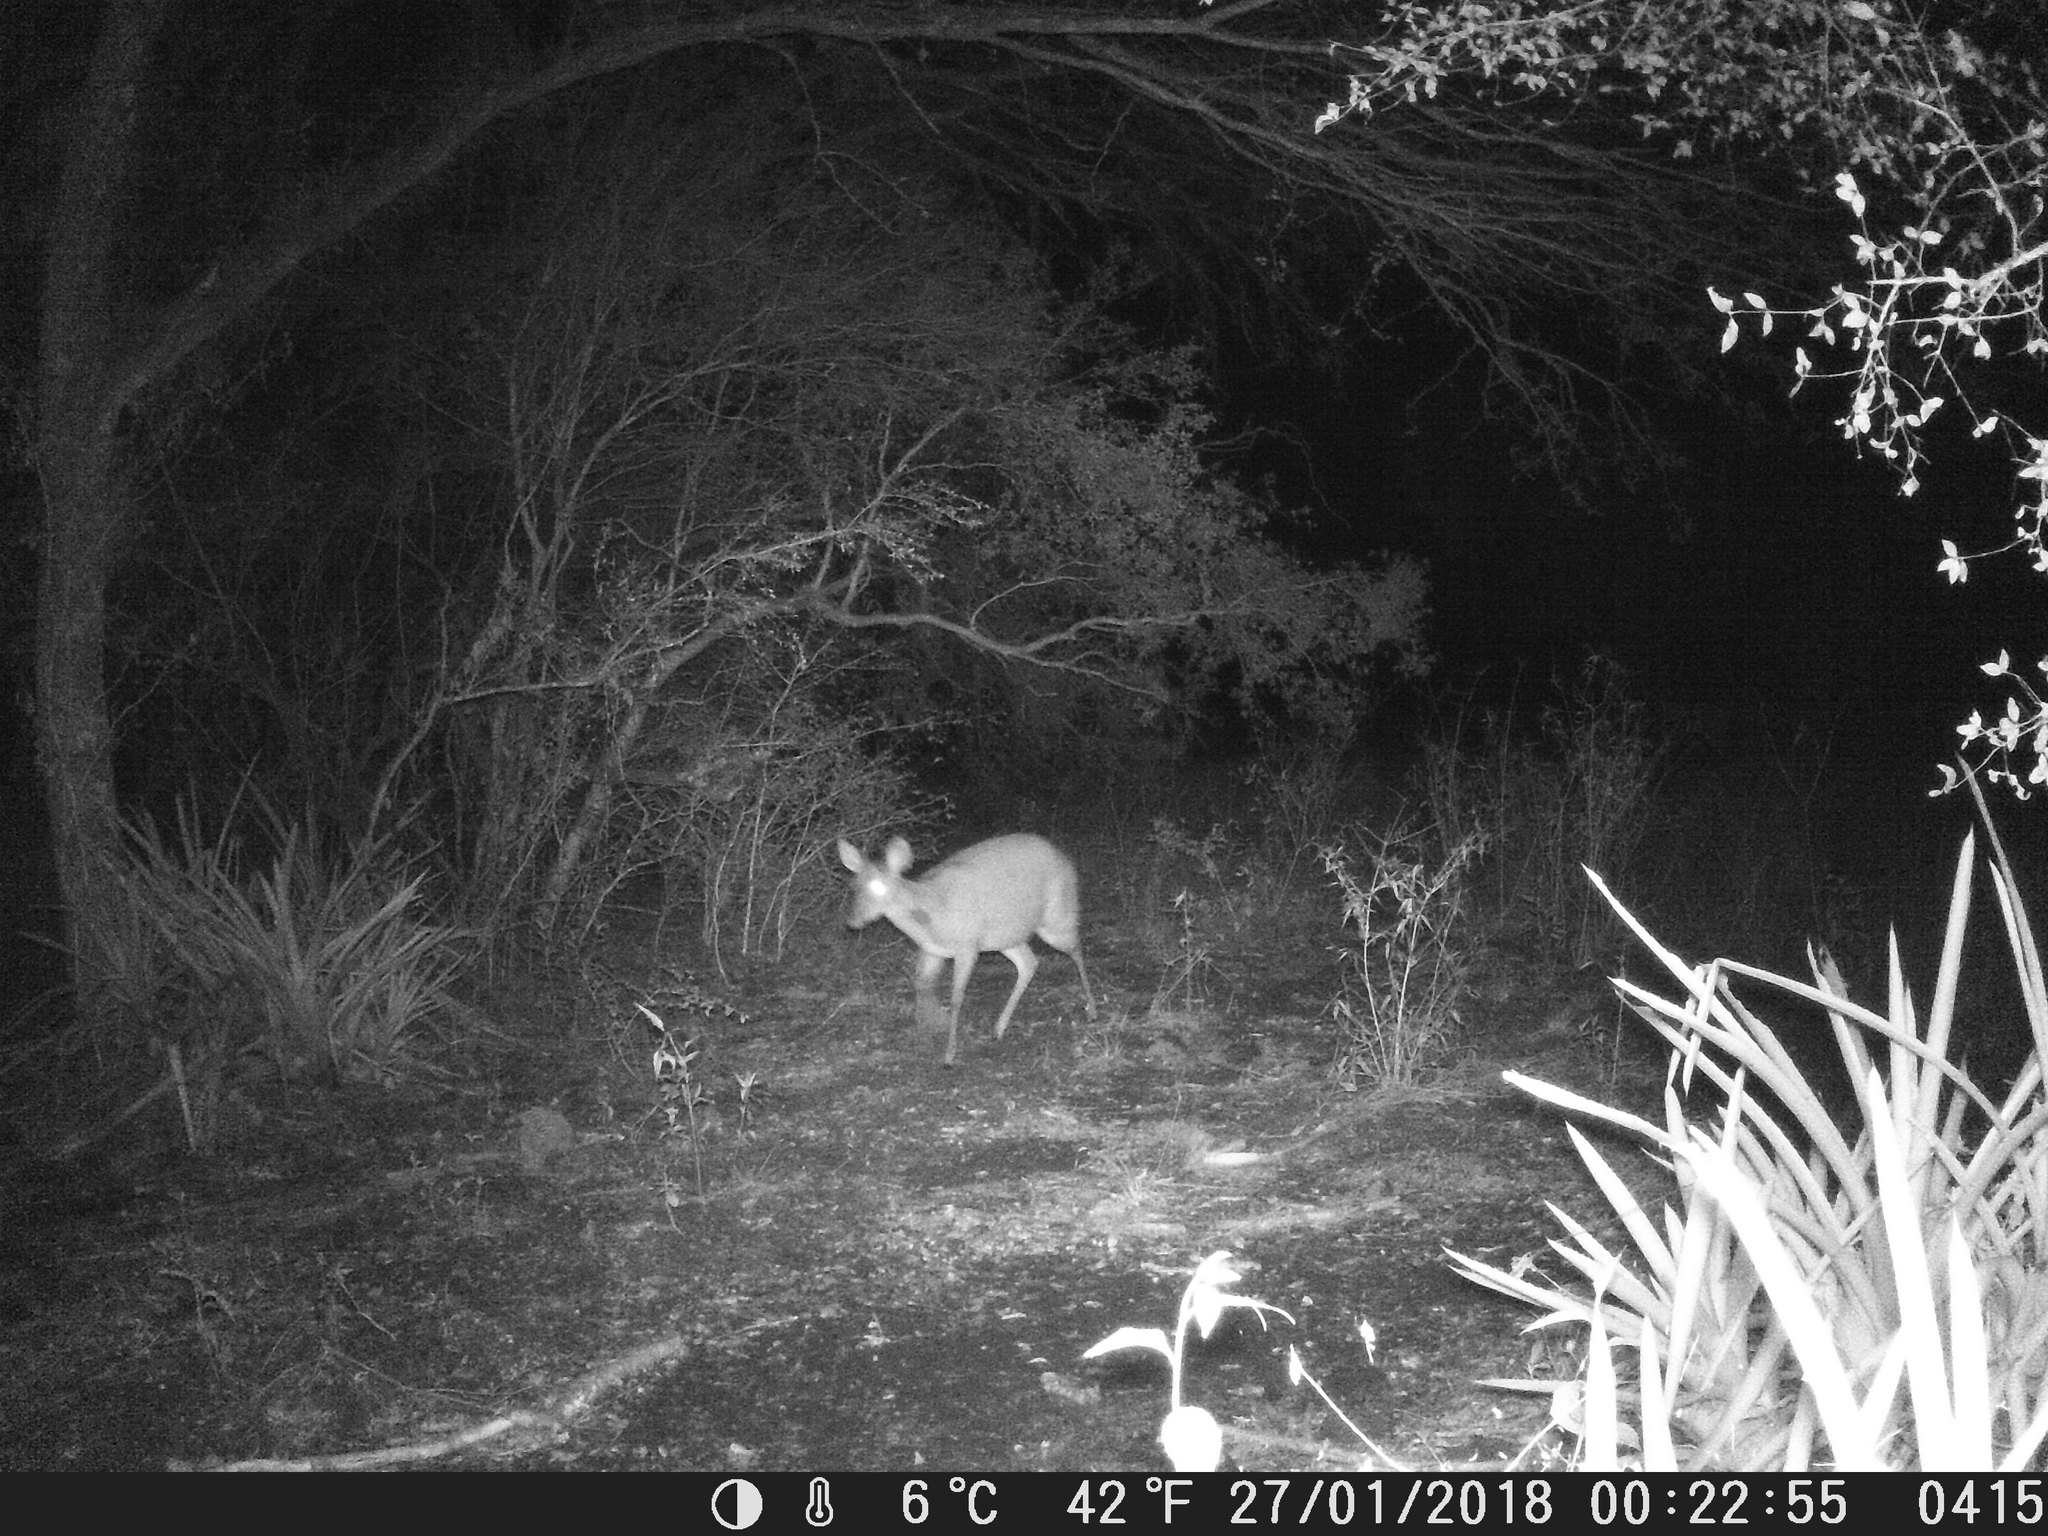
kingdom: Animalia
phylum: Chordata
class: Mammalia
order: Artiodactyla
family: Cervidae
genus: Mazama
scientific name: Mazama gouazoubira
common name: Gray brocket
